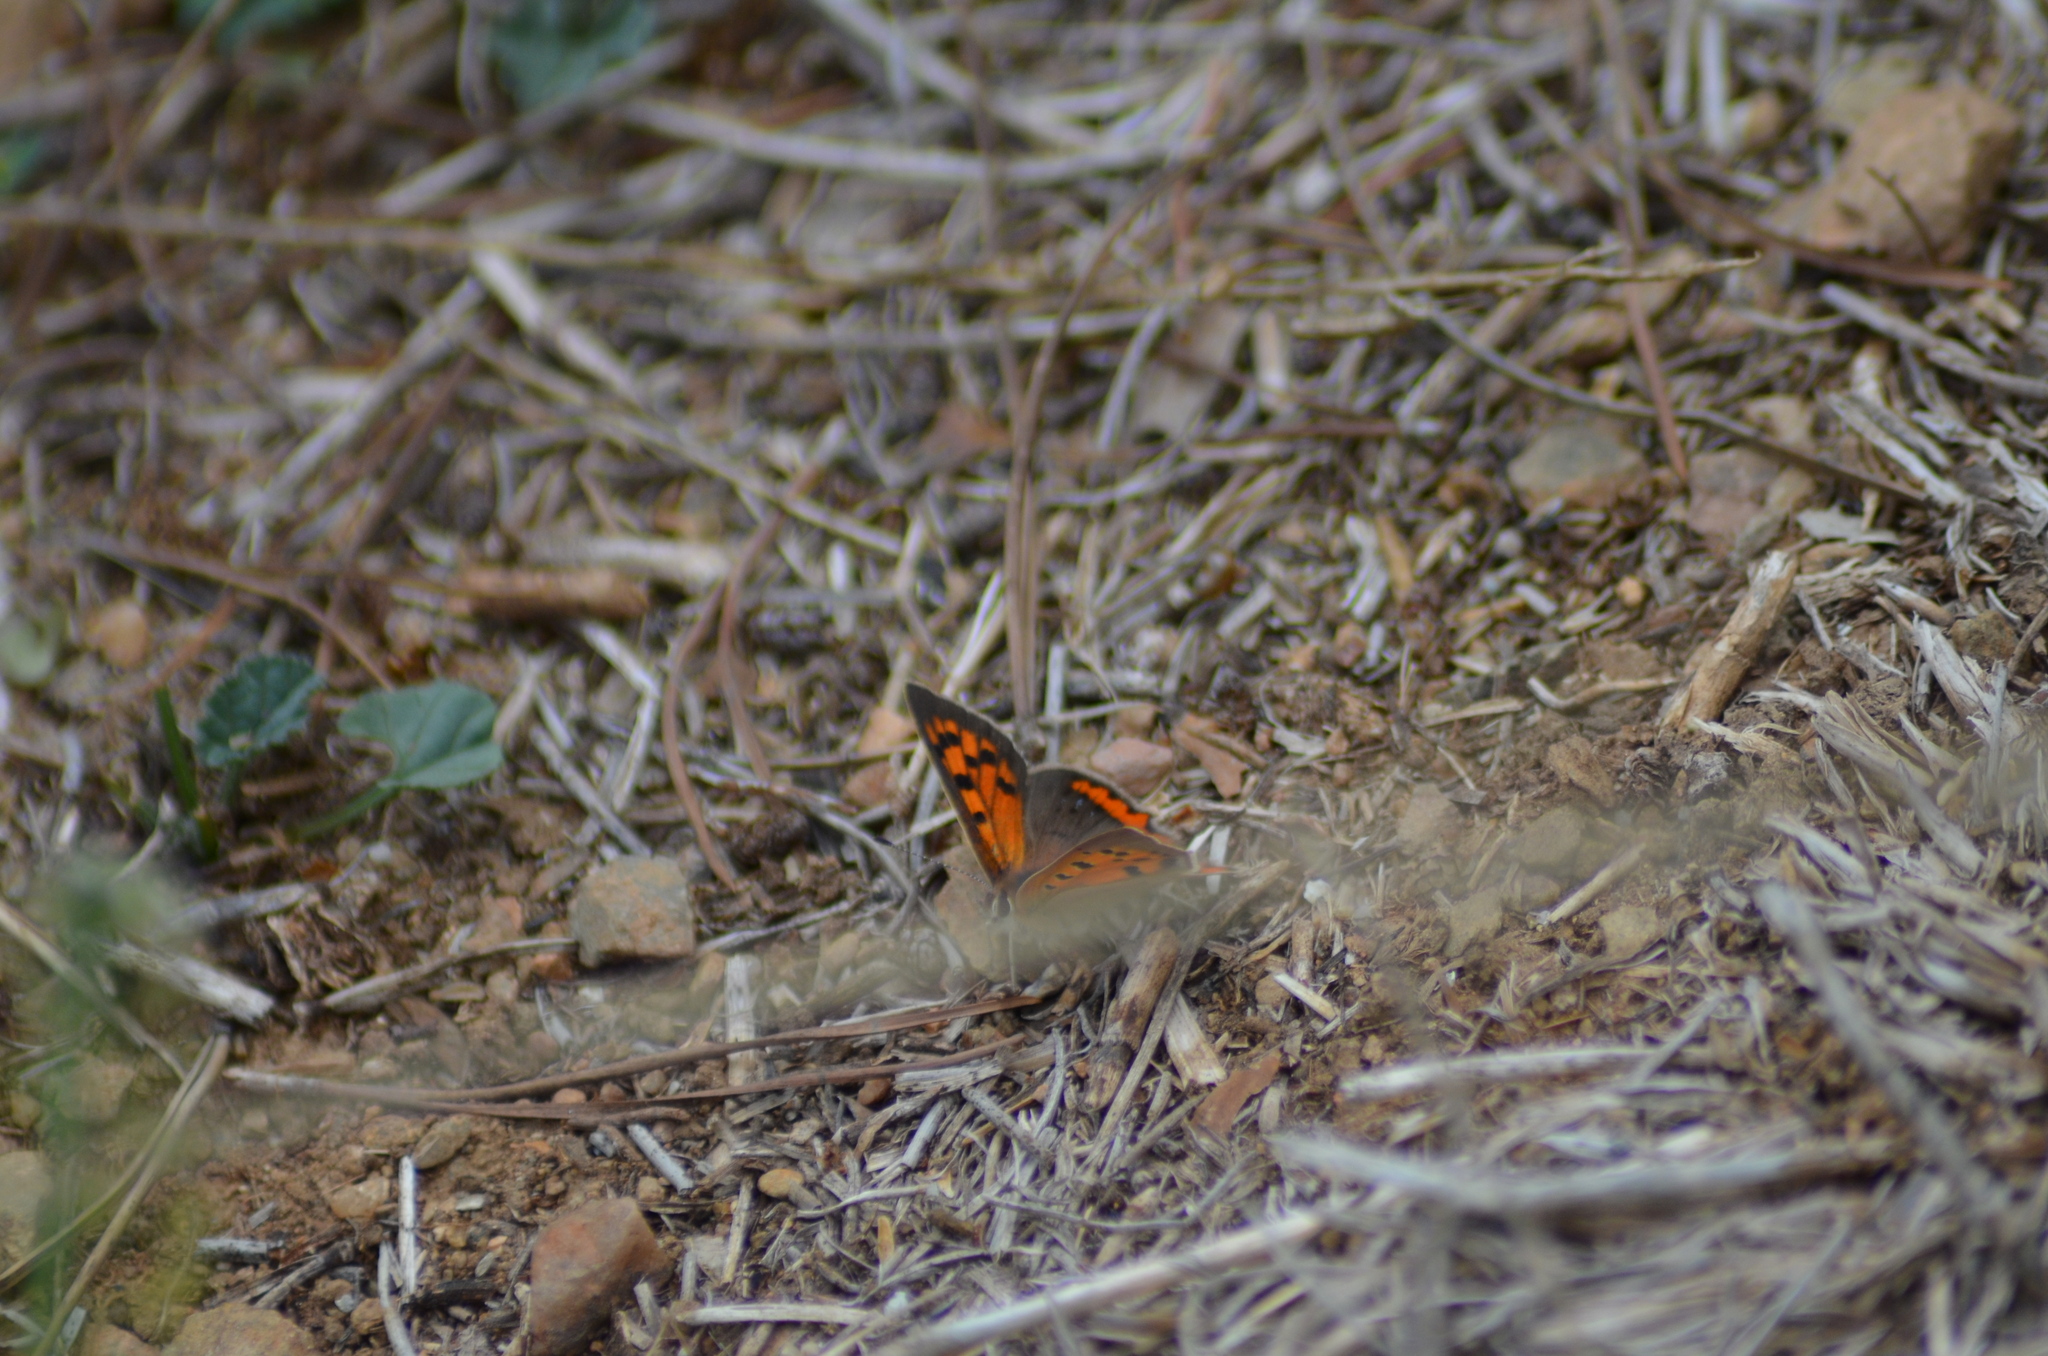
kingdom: Animalia
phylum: Arthropoda
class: Insecta
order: Lepidoptera
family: Lycaenidae
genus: Lycaena
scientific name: Lycaena phlaeas
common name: Small copper
